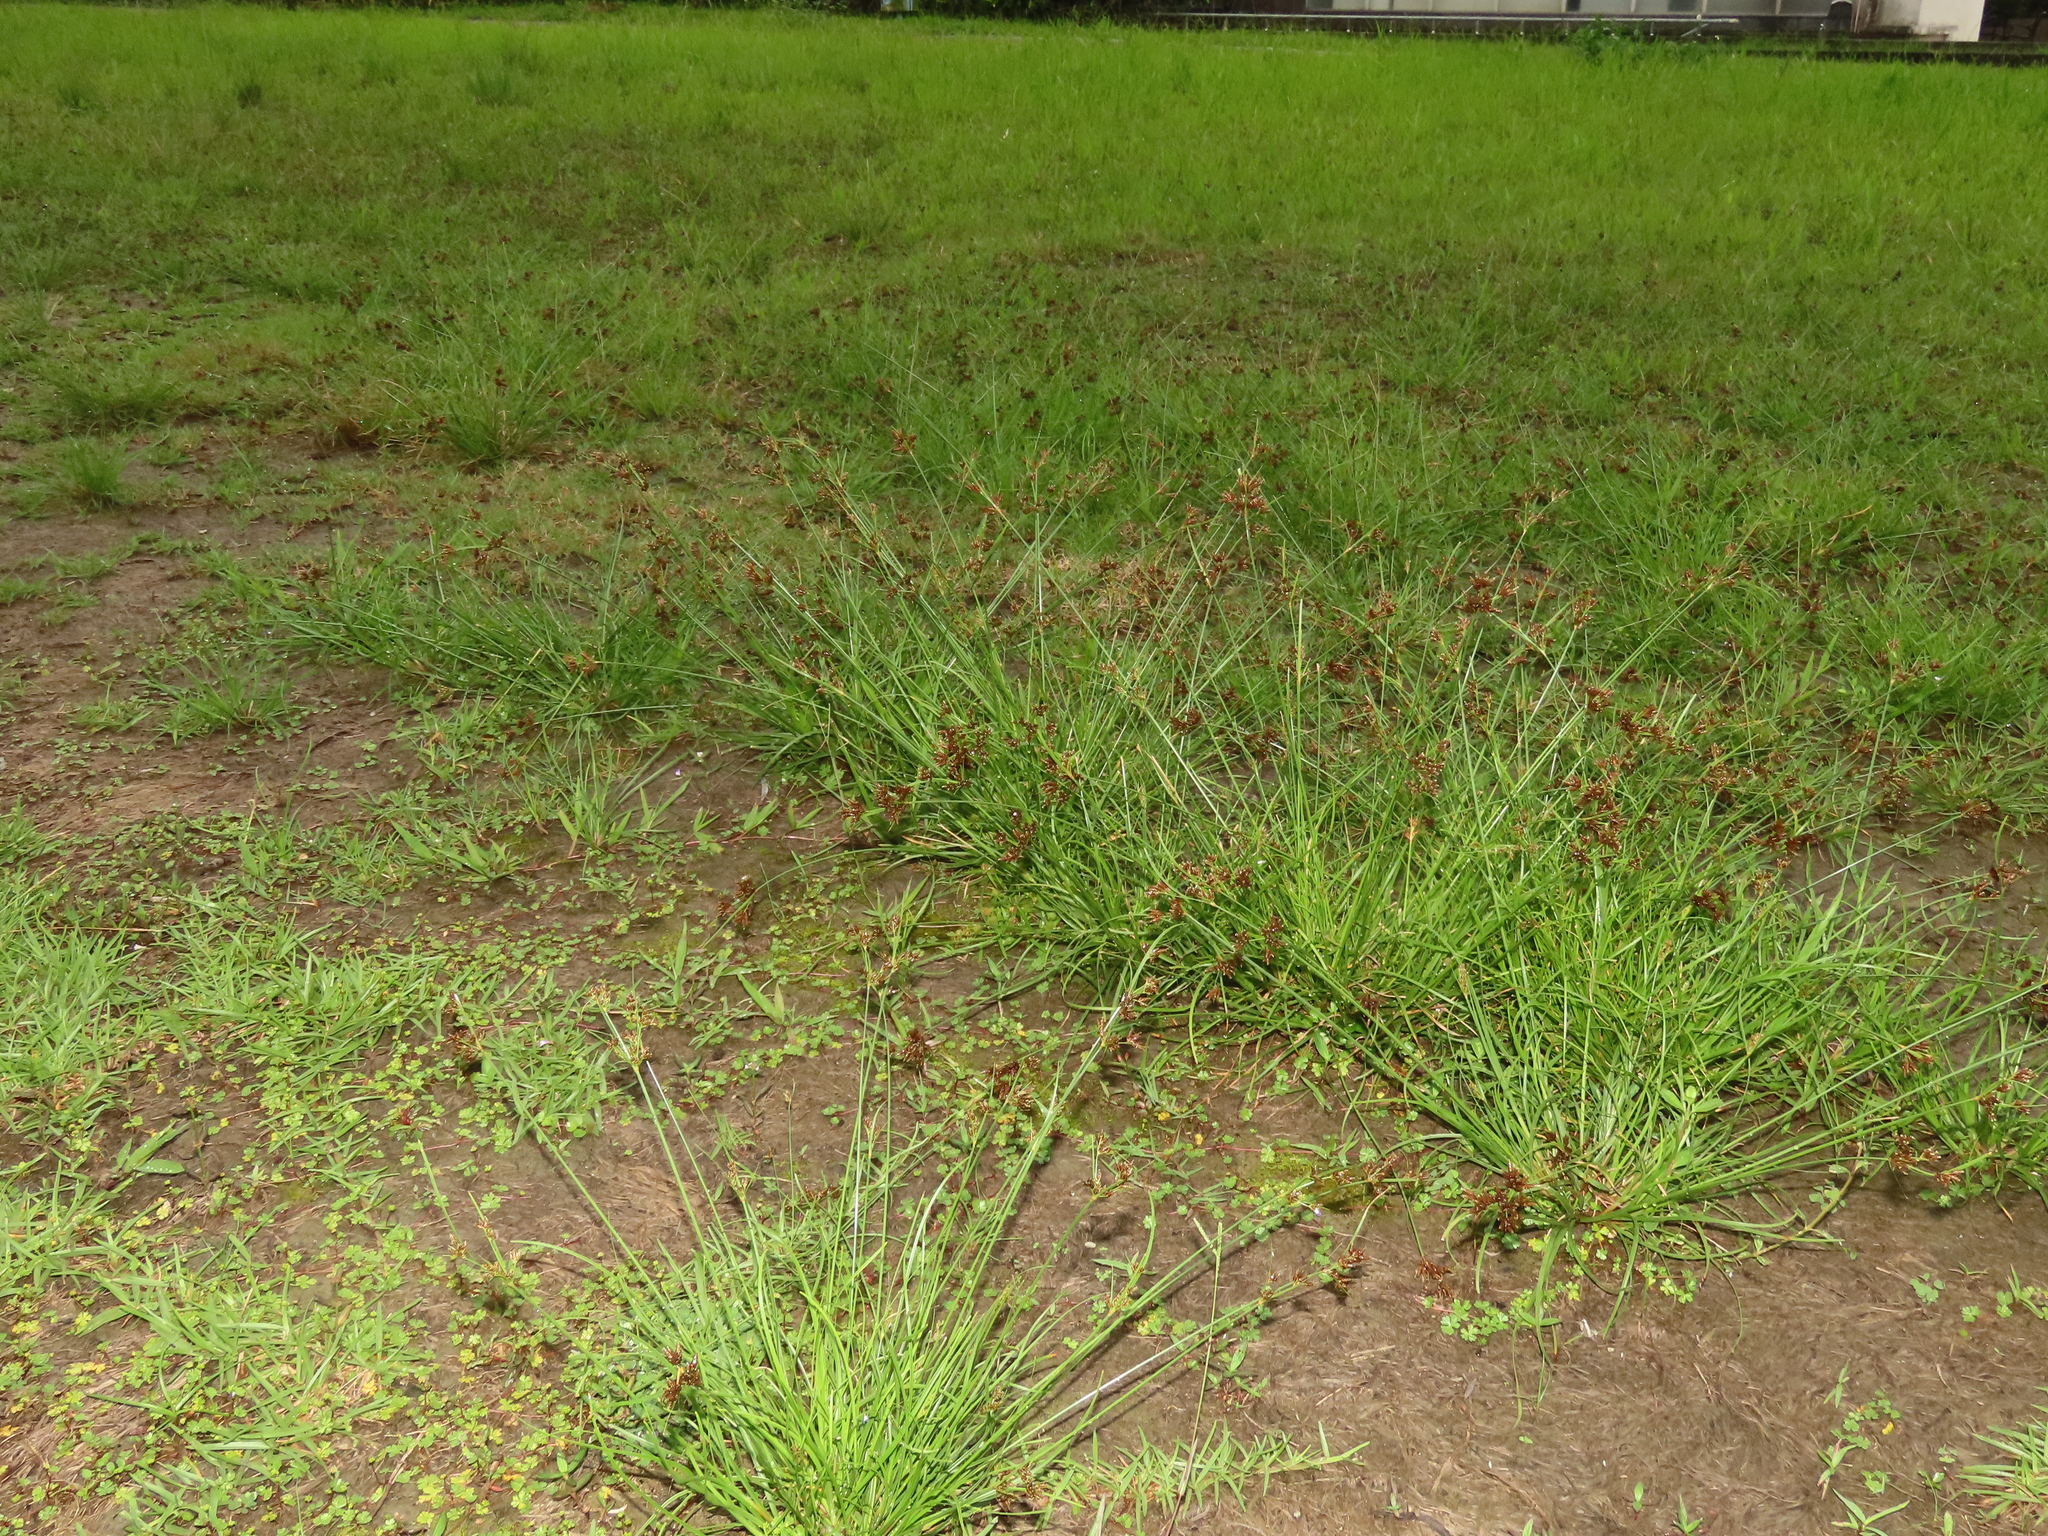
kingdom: Plantae
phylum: Tracheophyta
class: Liliopsida
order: Poales
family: Cyperaceae
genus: Fimbristylis
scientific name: Fimbristylis dichotoma
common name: Forked fimbry
